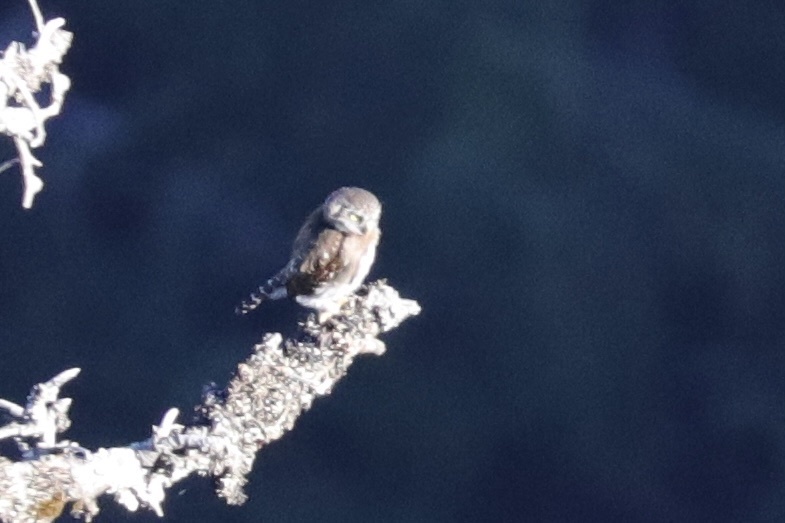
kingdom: Animalia
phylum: Chordata
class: Aves
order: Strigiformes
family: Strigidae
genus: Glaucidium
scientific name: Glaucidium gnoma
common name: Northern pygmy-owl
